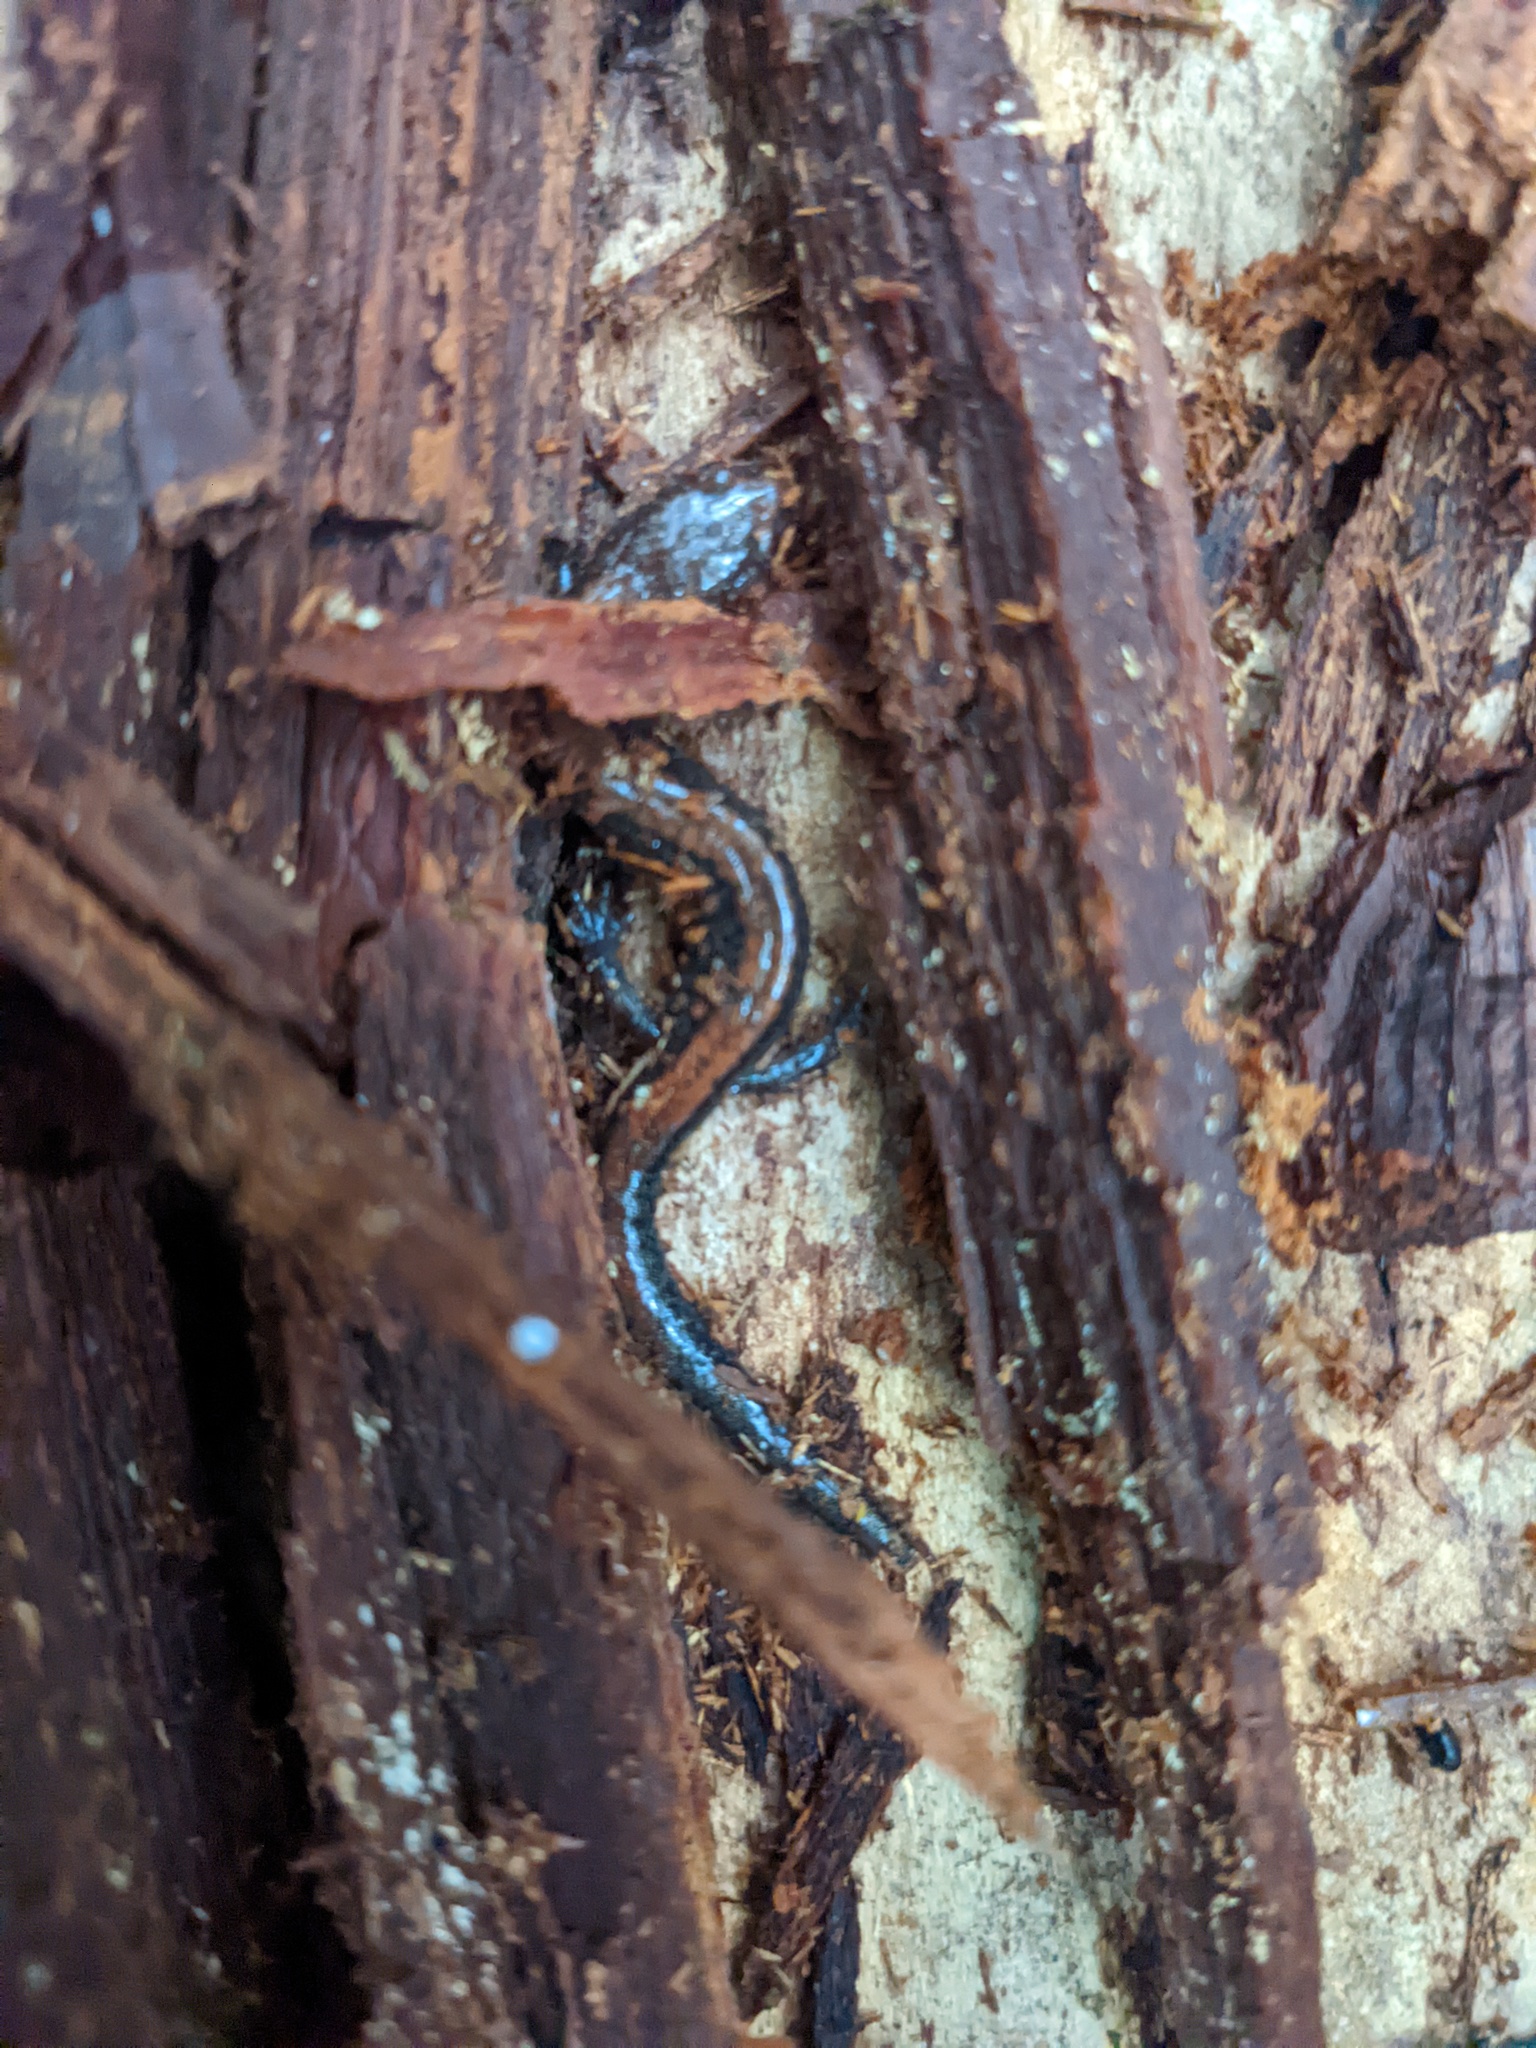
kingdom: Animalia
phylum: Chordata
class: Amphibia
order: Caudata
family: Plethodontidae
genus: Plethodon
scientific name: Plethodon cinereus
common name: Redback salamander
